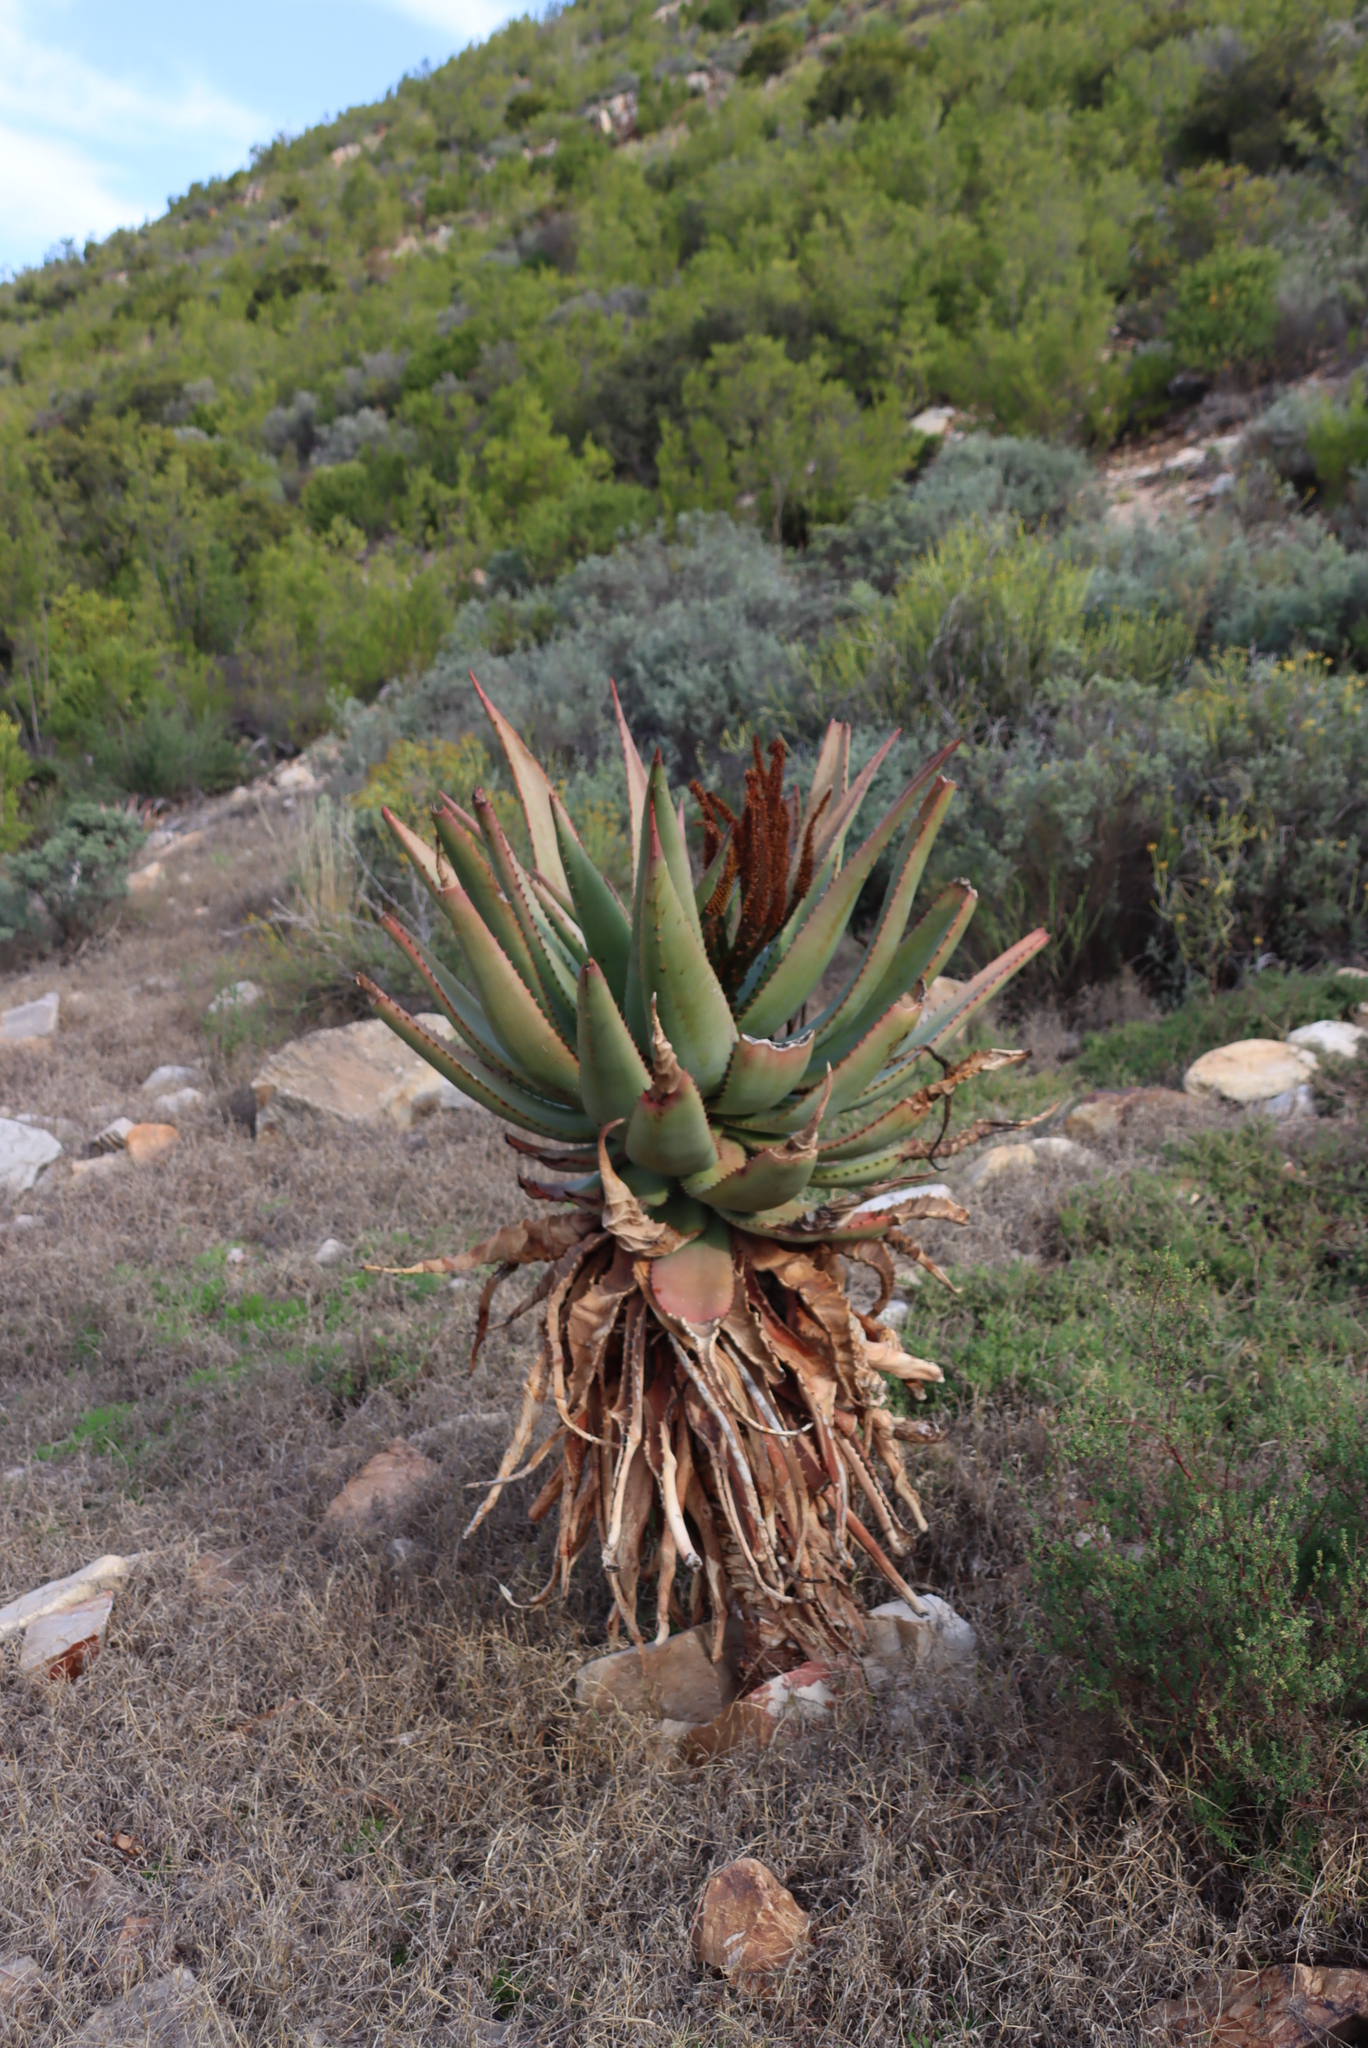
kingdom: Plantae
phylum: Tracheophyta
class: Liliopsida
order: Asparagales
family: Asphodelaceae
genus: Aloe
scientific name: Aloe ferox
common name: Bitter aloe
